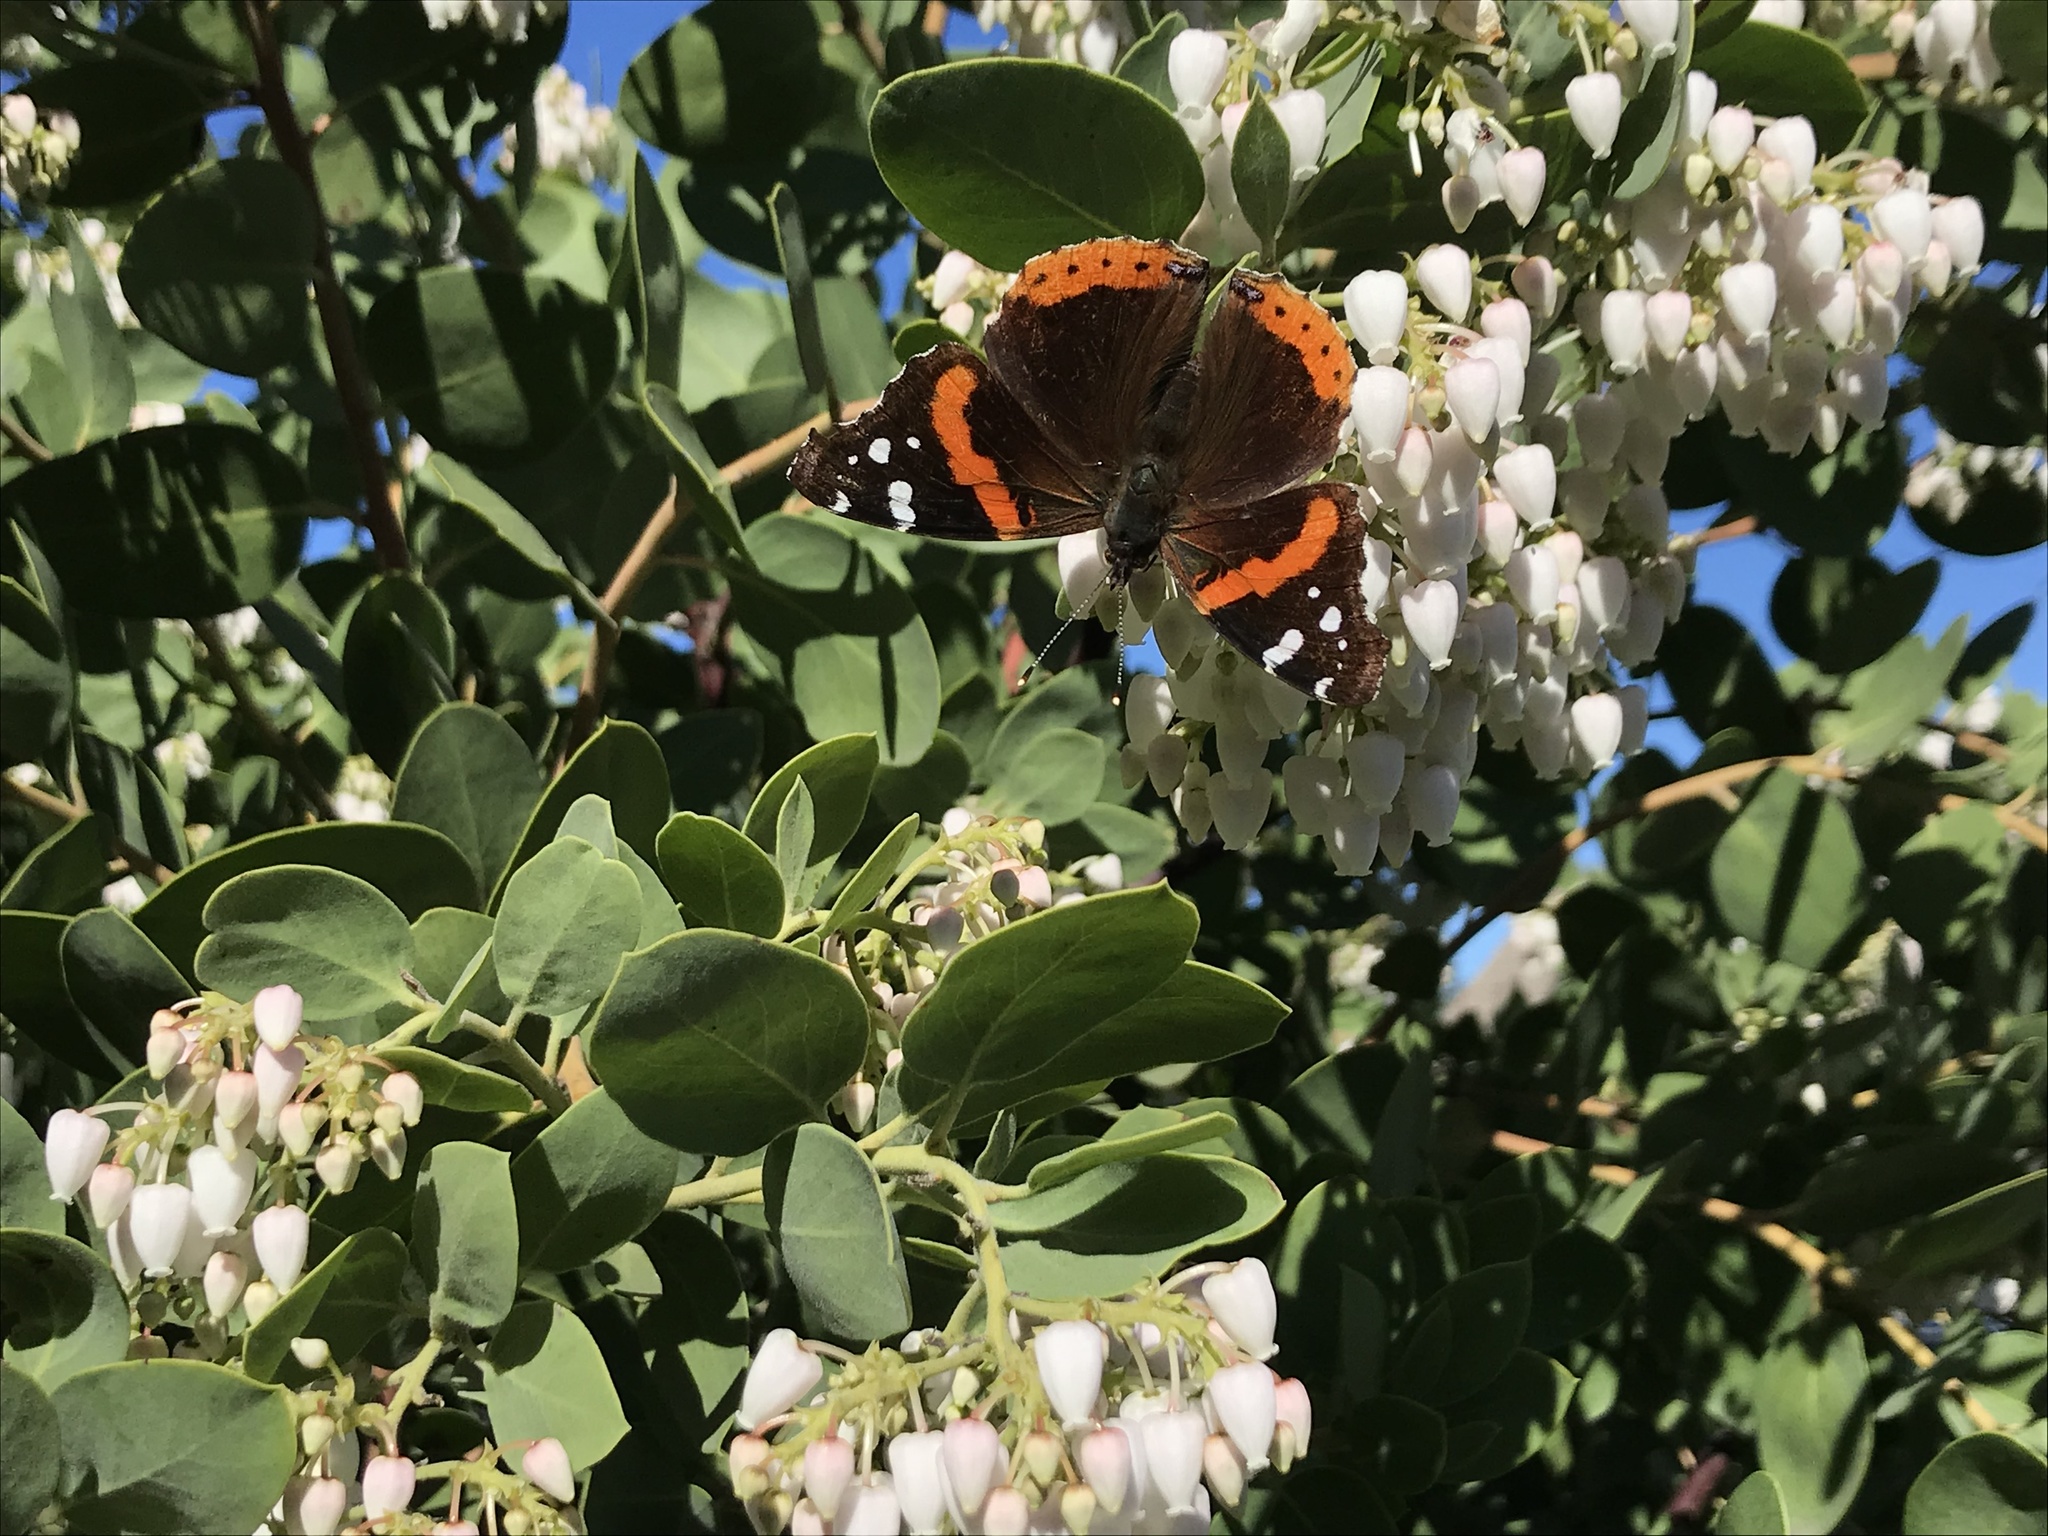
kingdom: Animalia
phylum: Arthropoda
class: Insecta
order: Lepidoptera
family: Nymphalidae
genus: Vanessa
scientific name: Vanessa atalanta
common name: Red admiral
